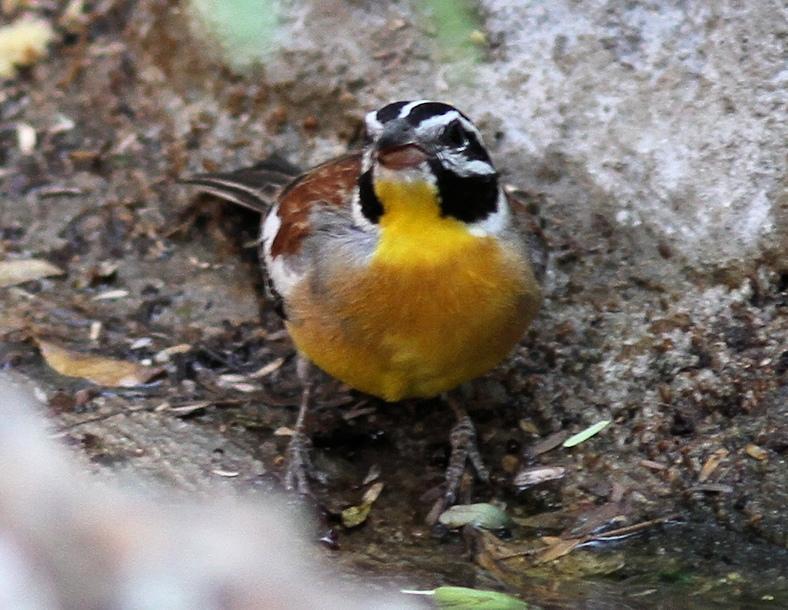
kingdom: Animalia
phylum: Chordata
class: Aves
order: Passeriformes
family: Emberizidae
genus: Emberiza
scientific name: Emberiza flaviventris
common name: Golden-breasted bunting
